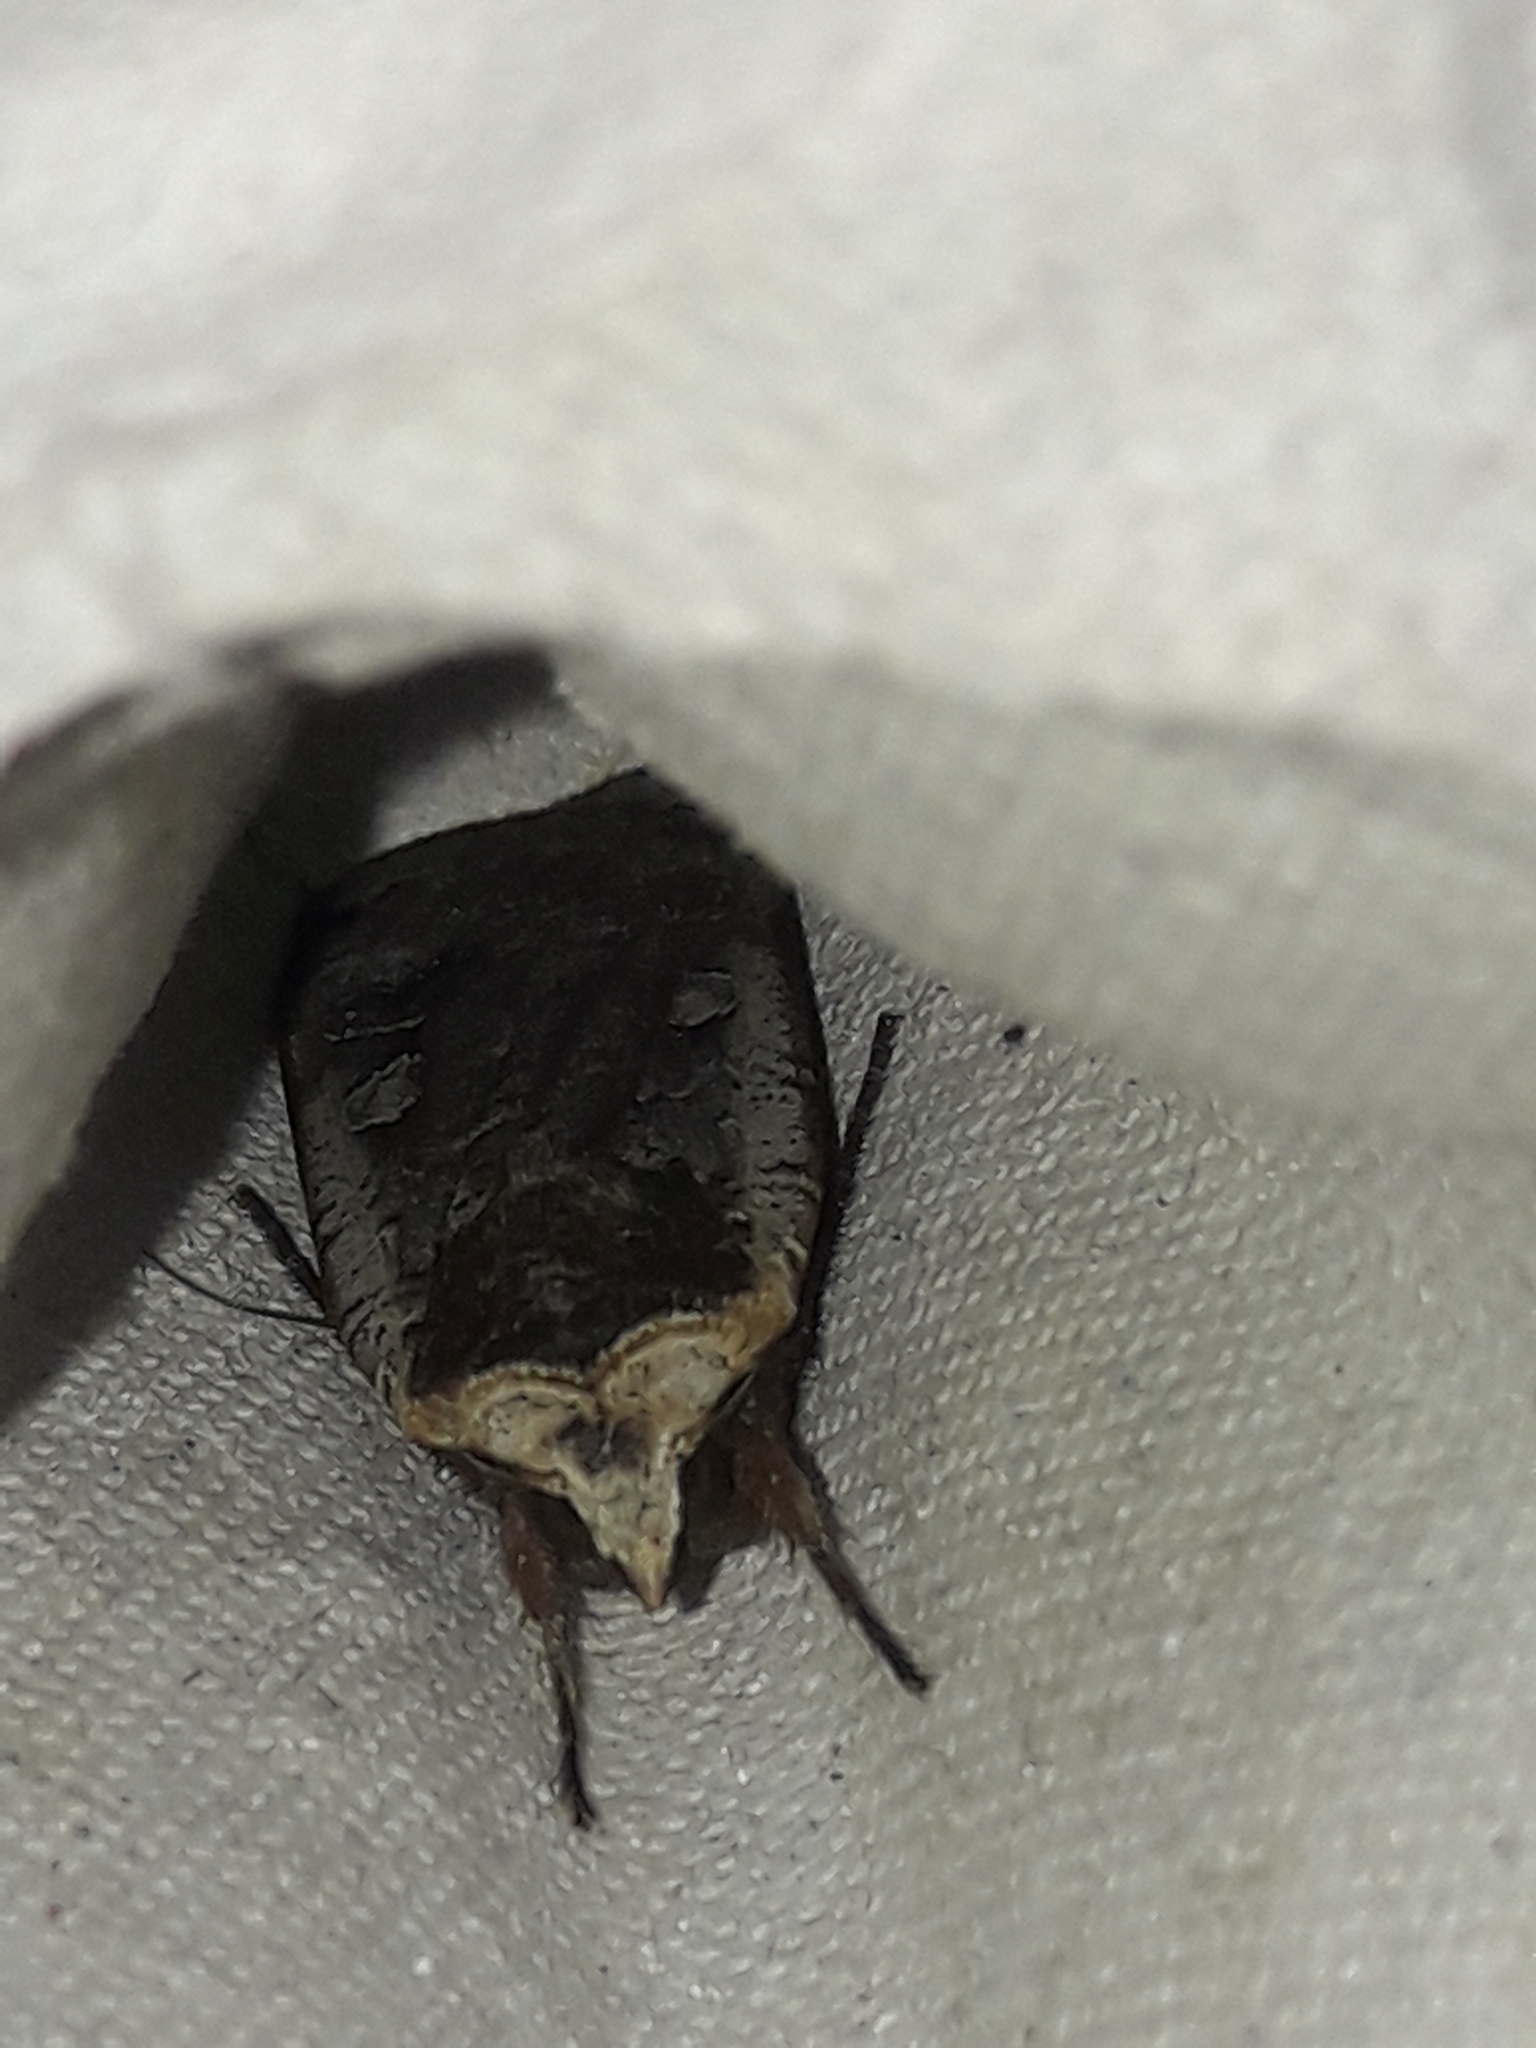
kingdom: Animalia
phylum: Arthropoda
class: Insecta
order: Lepidoptera
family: Noctuidae
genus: Noctua
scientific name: Noctua pronuba
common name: Large yellow underwing
